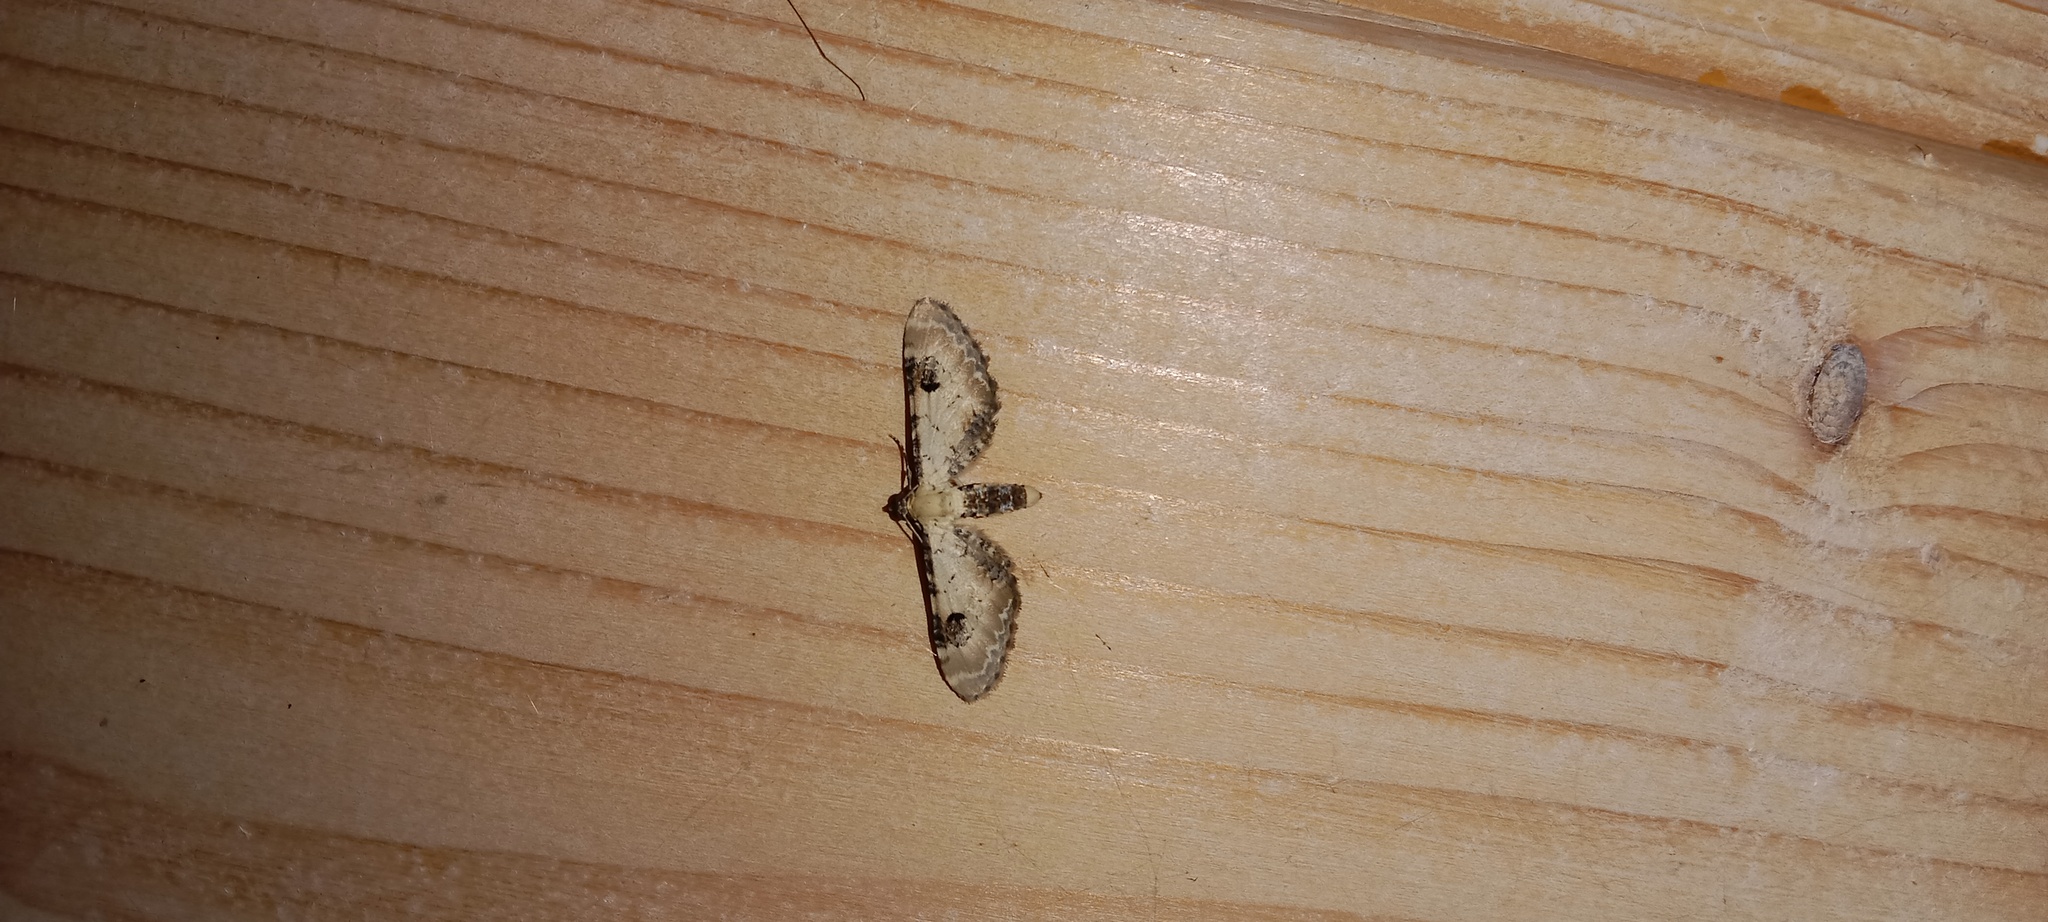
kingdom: Animalia
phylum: Arthropoda
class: Insecta
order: Lepidoptera
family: Geometridae
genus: Eupithecia
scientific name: Eupithecia centaureata
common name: Lime-speck pug
